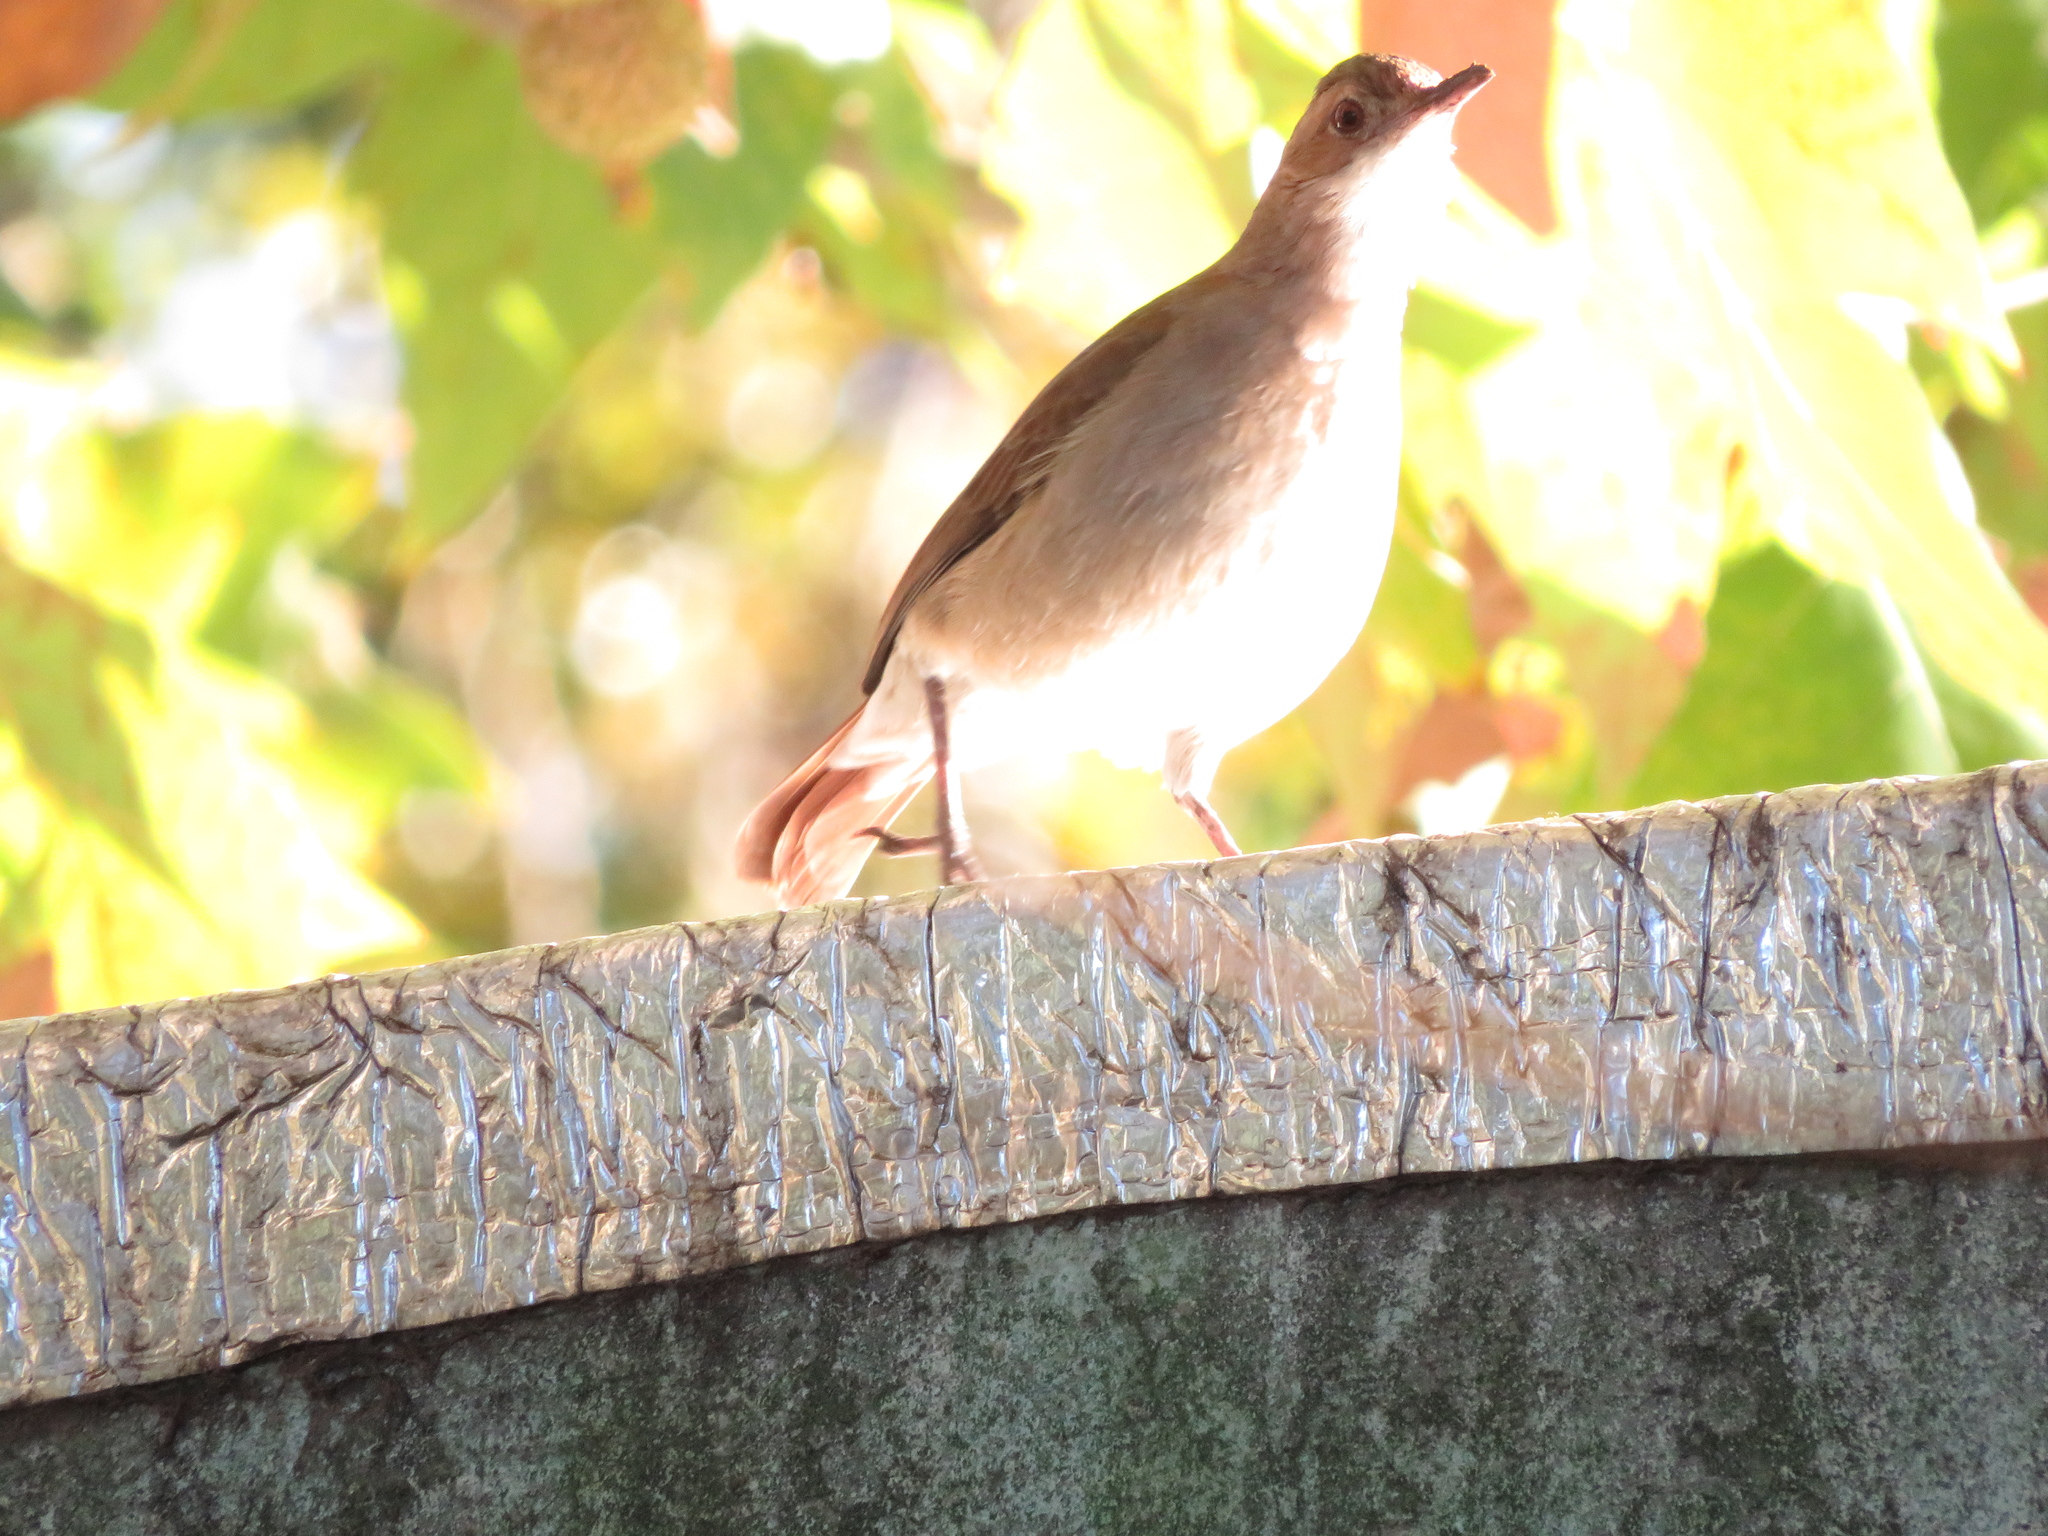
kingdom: Animalia
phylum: Chordata
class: Aves
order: Passeriformes
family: Furnariidae
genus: Furnarius
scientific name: Furnarius rufus
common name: Rufous hornero
